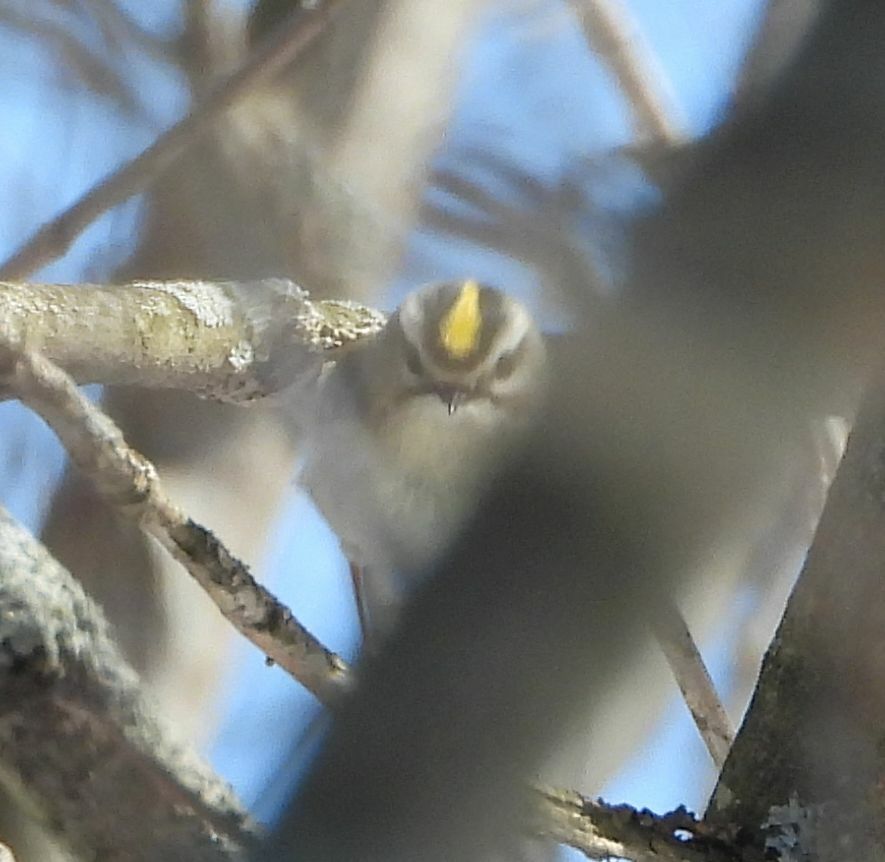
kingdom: Animalia
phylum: Chordata
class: Aves
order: Passeriformes
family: Regulidae
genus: Regulus
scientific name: Regulus satrapa
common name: Golden-crowned kinglet
